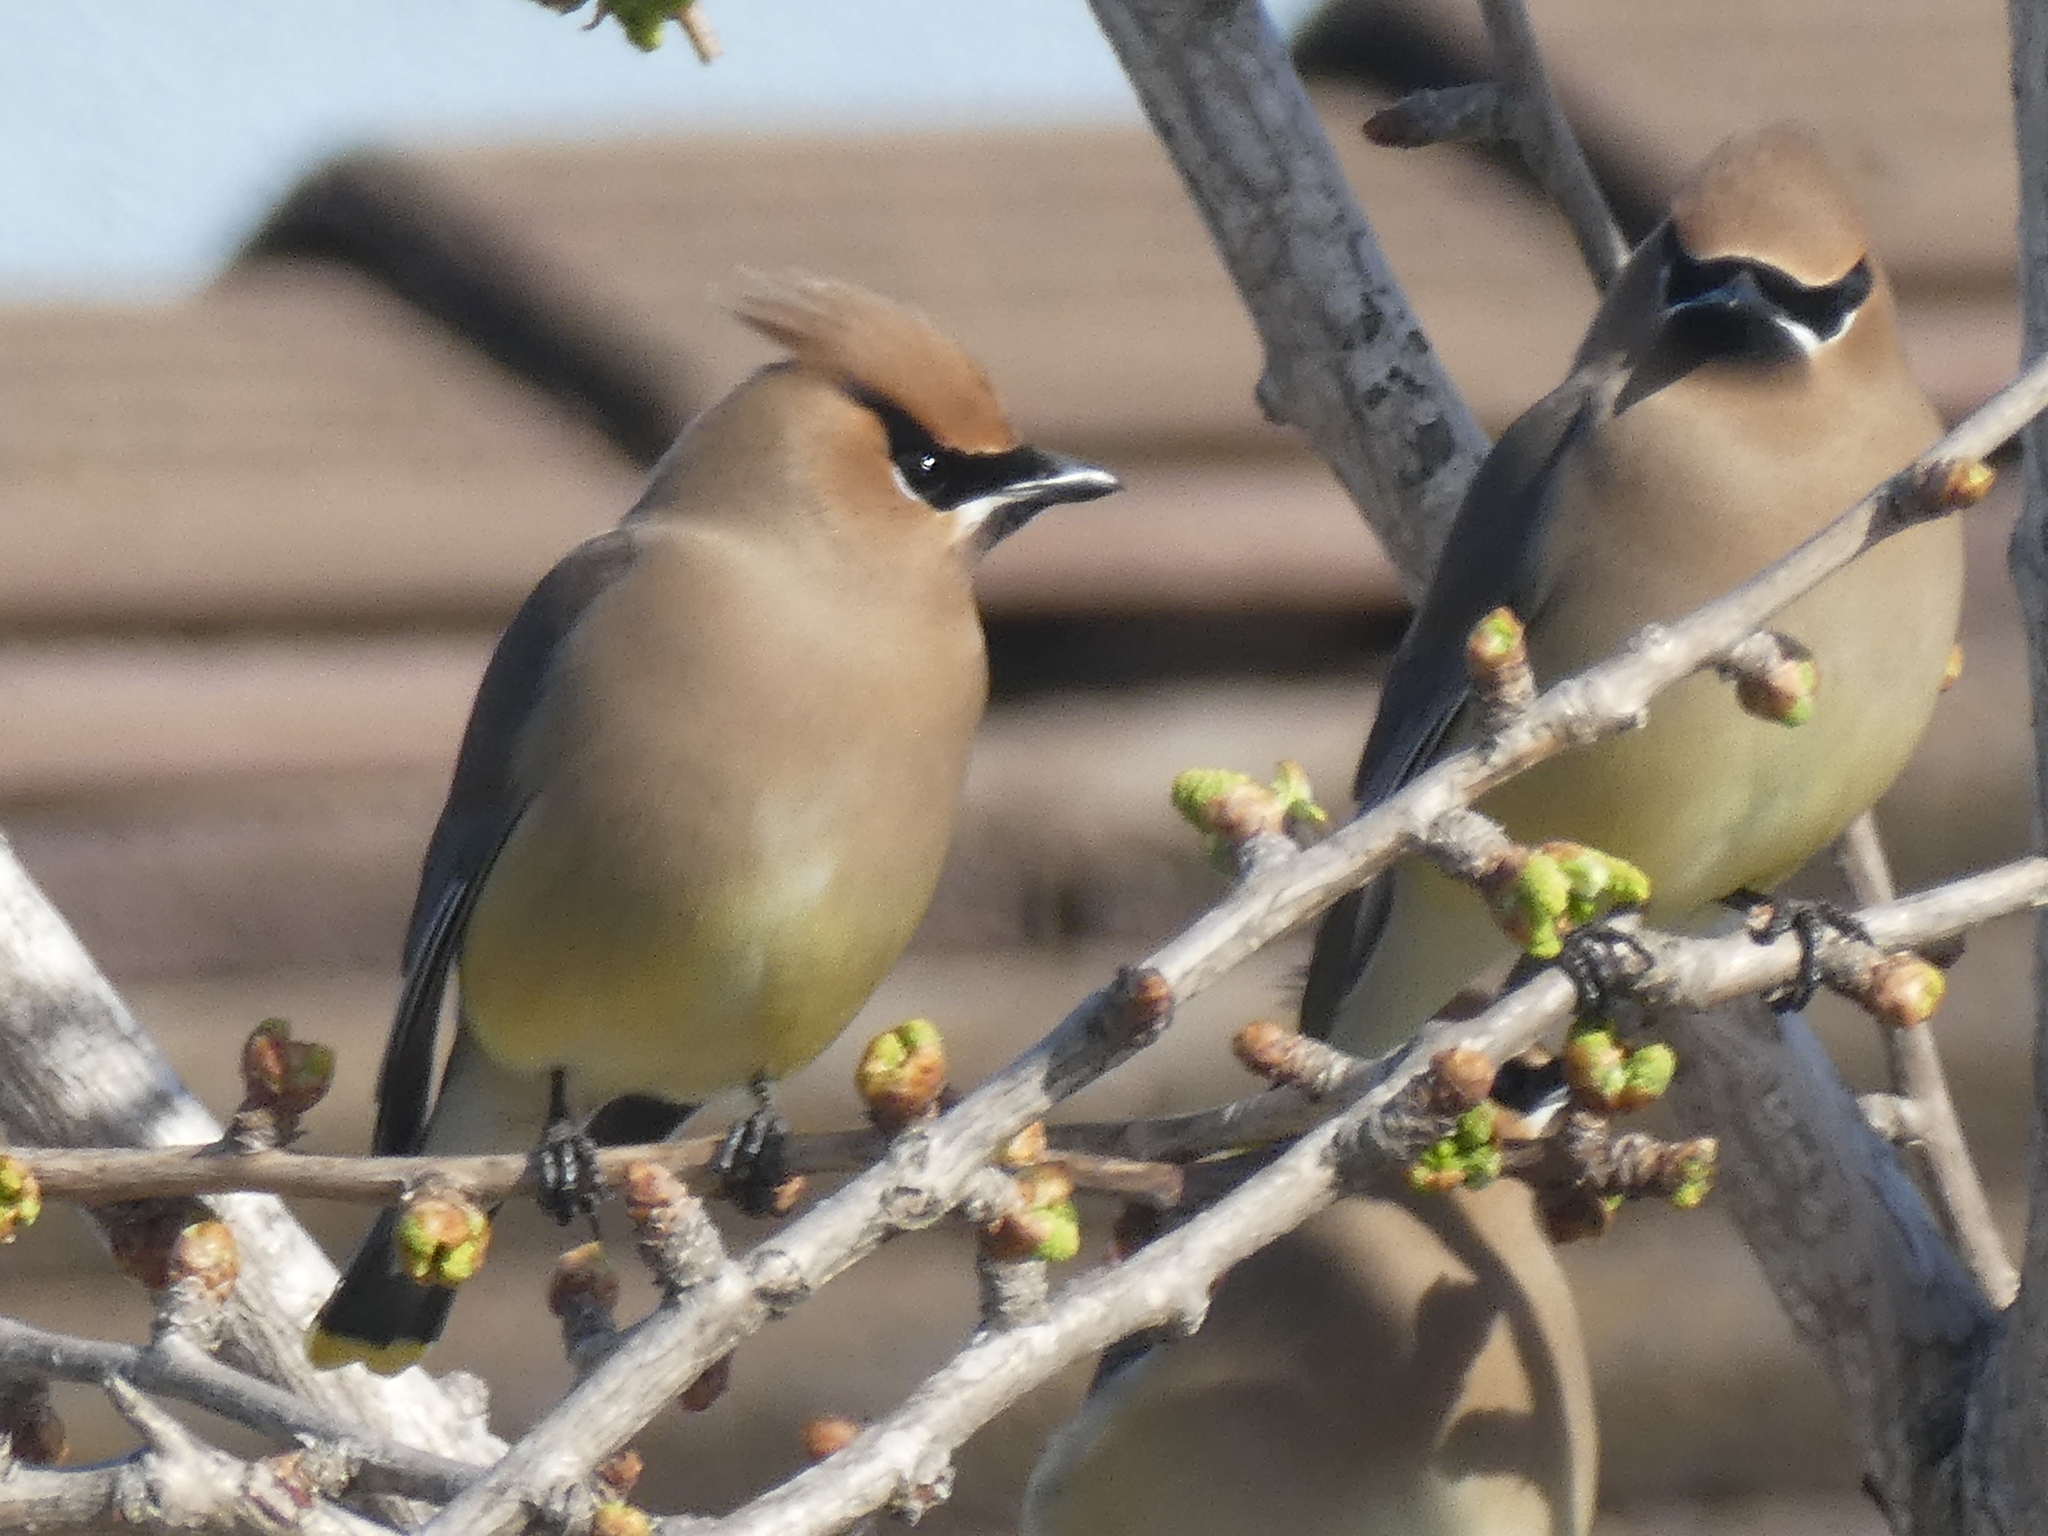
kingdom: Animalia
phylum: Chordata
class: Aves
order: Passeriformes
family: Bombycillidae
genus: Bombycilla
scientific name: Bombycilla cedrorum
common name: Cedar waxwing
